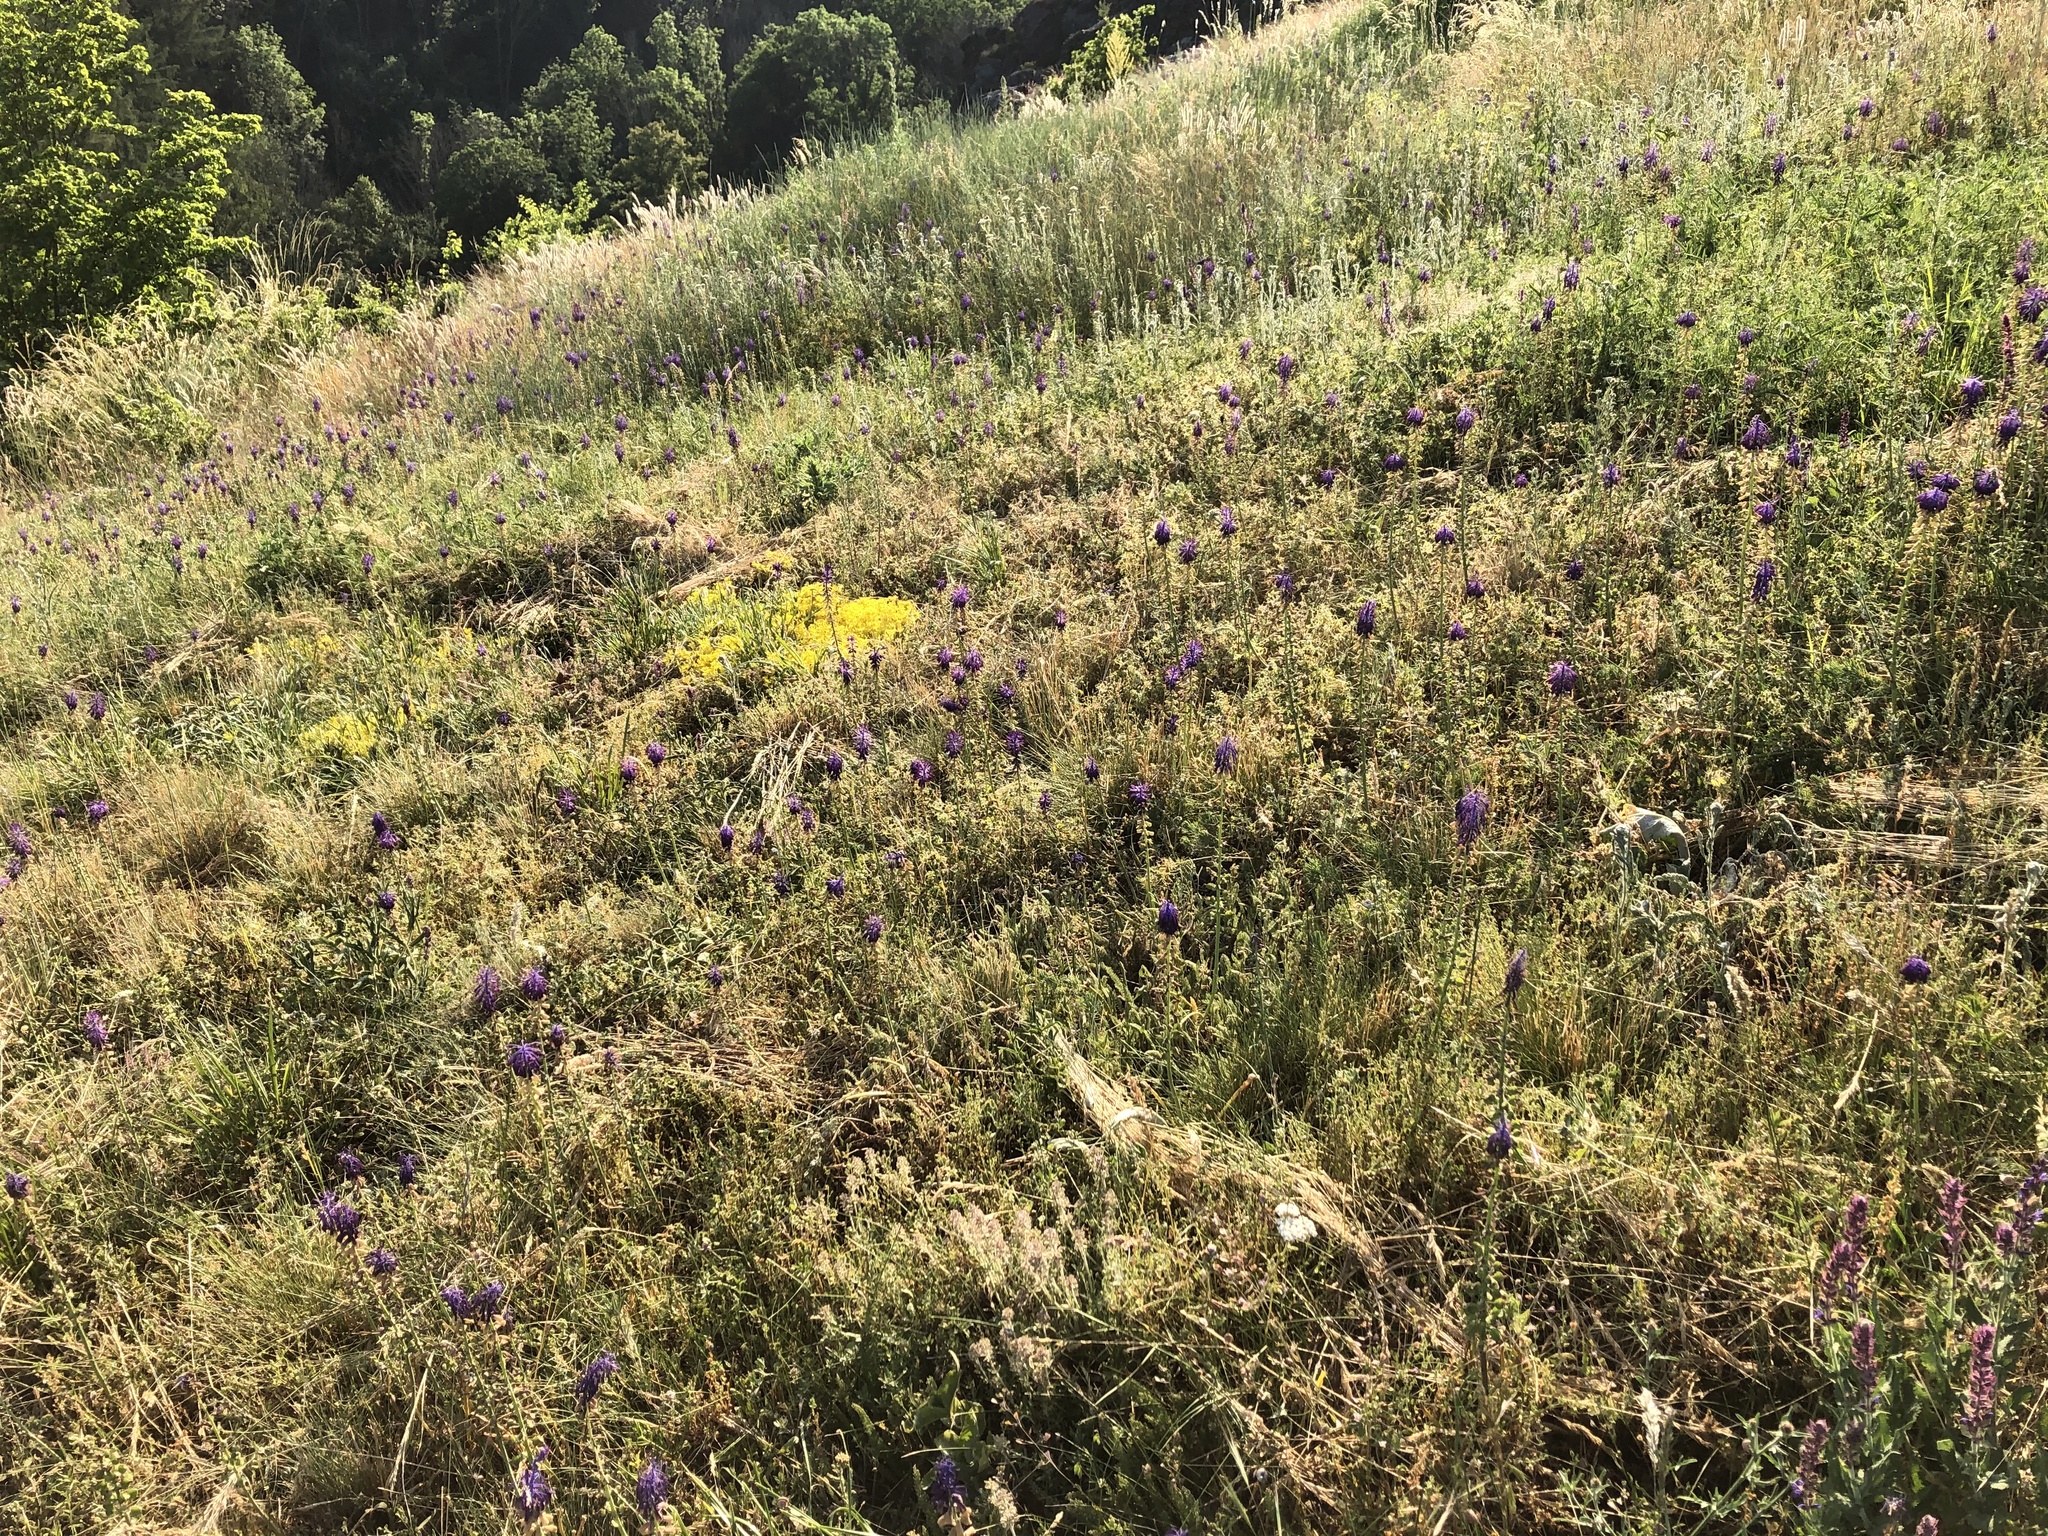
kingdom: Plantae
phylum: Tracheophyta
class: Liliopsida
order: Asparagales
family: Asparagaceae
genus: Muscari
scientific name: Muscari tenuiflorum
